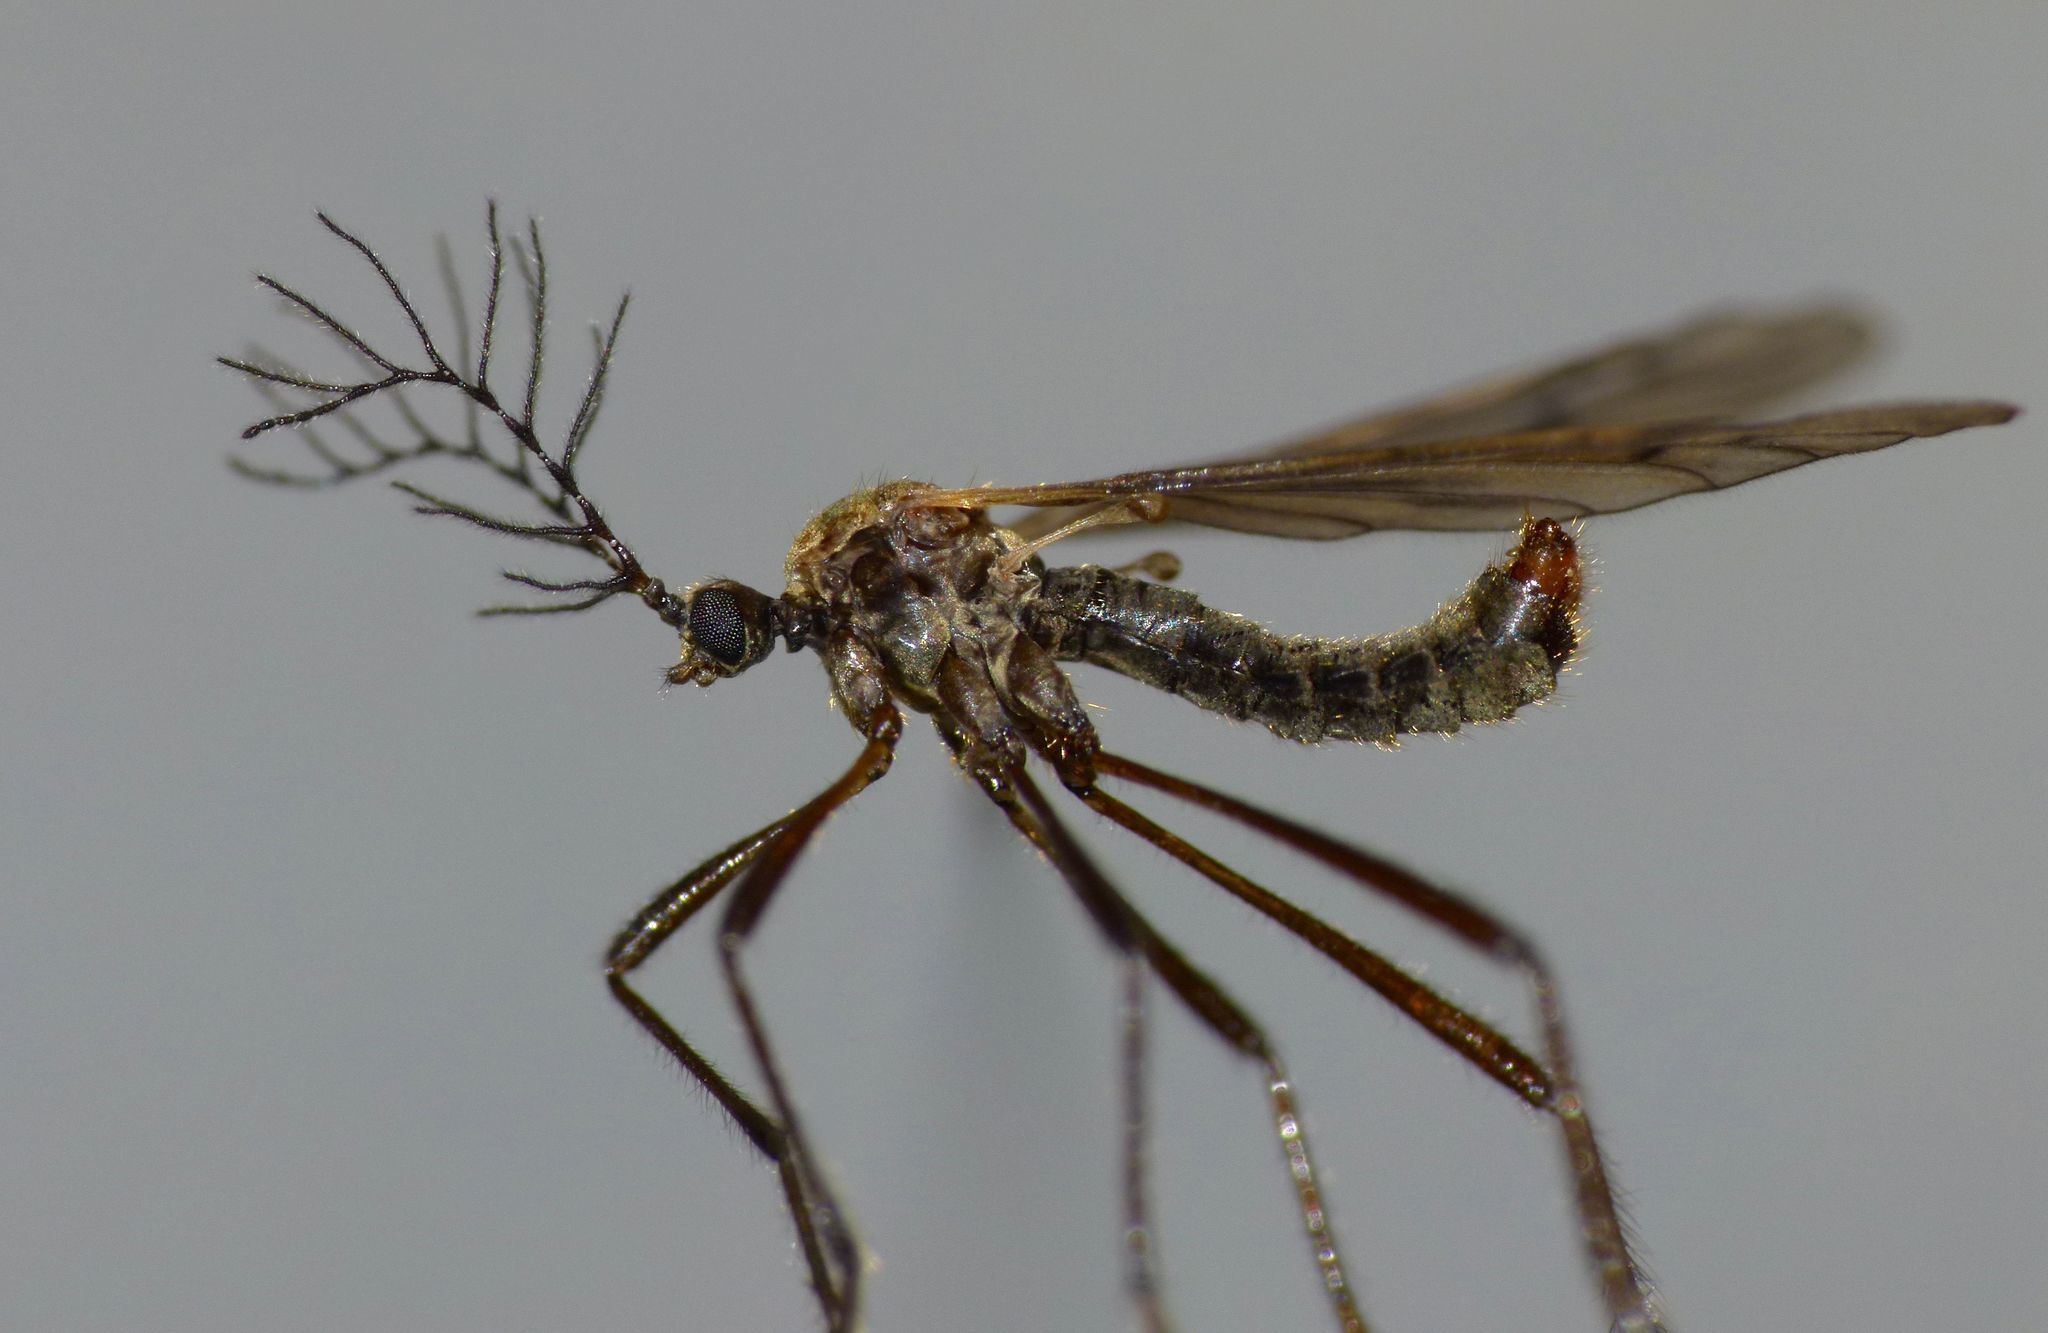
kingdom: Animalia
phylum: Arthropoda
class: Insecta
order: Diptera
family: Limoniidae
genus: Gynoplistia
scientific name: Gynoplistia otagana
